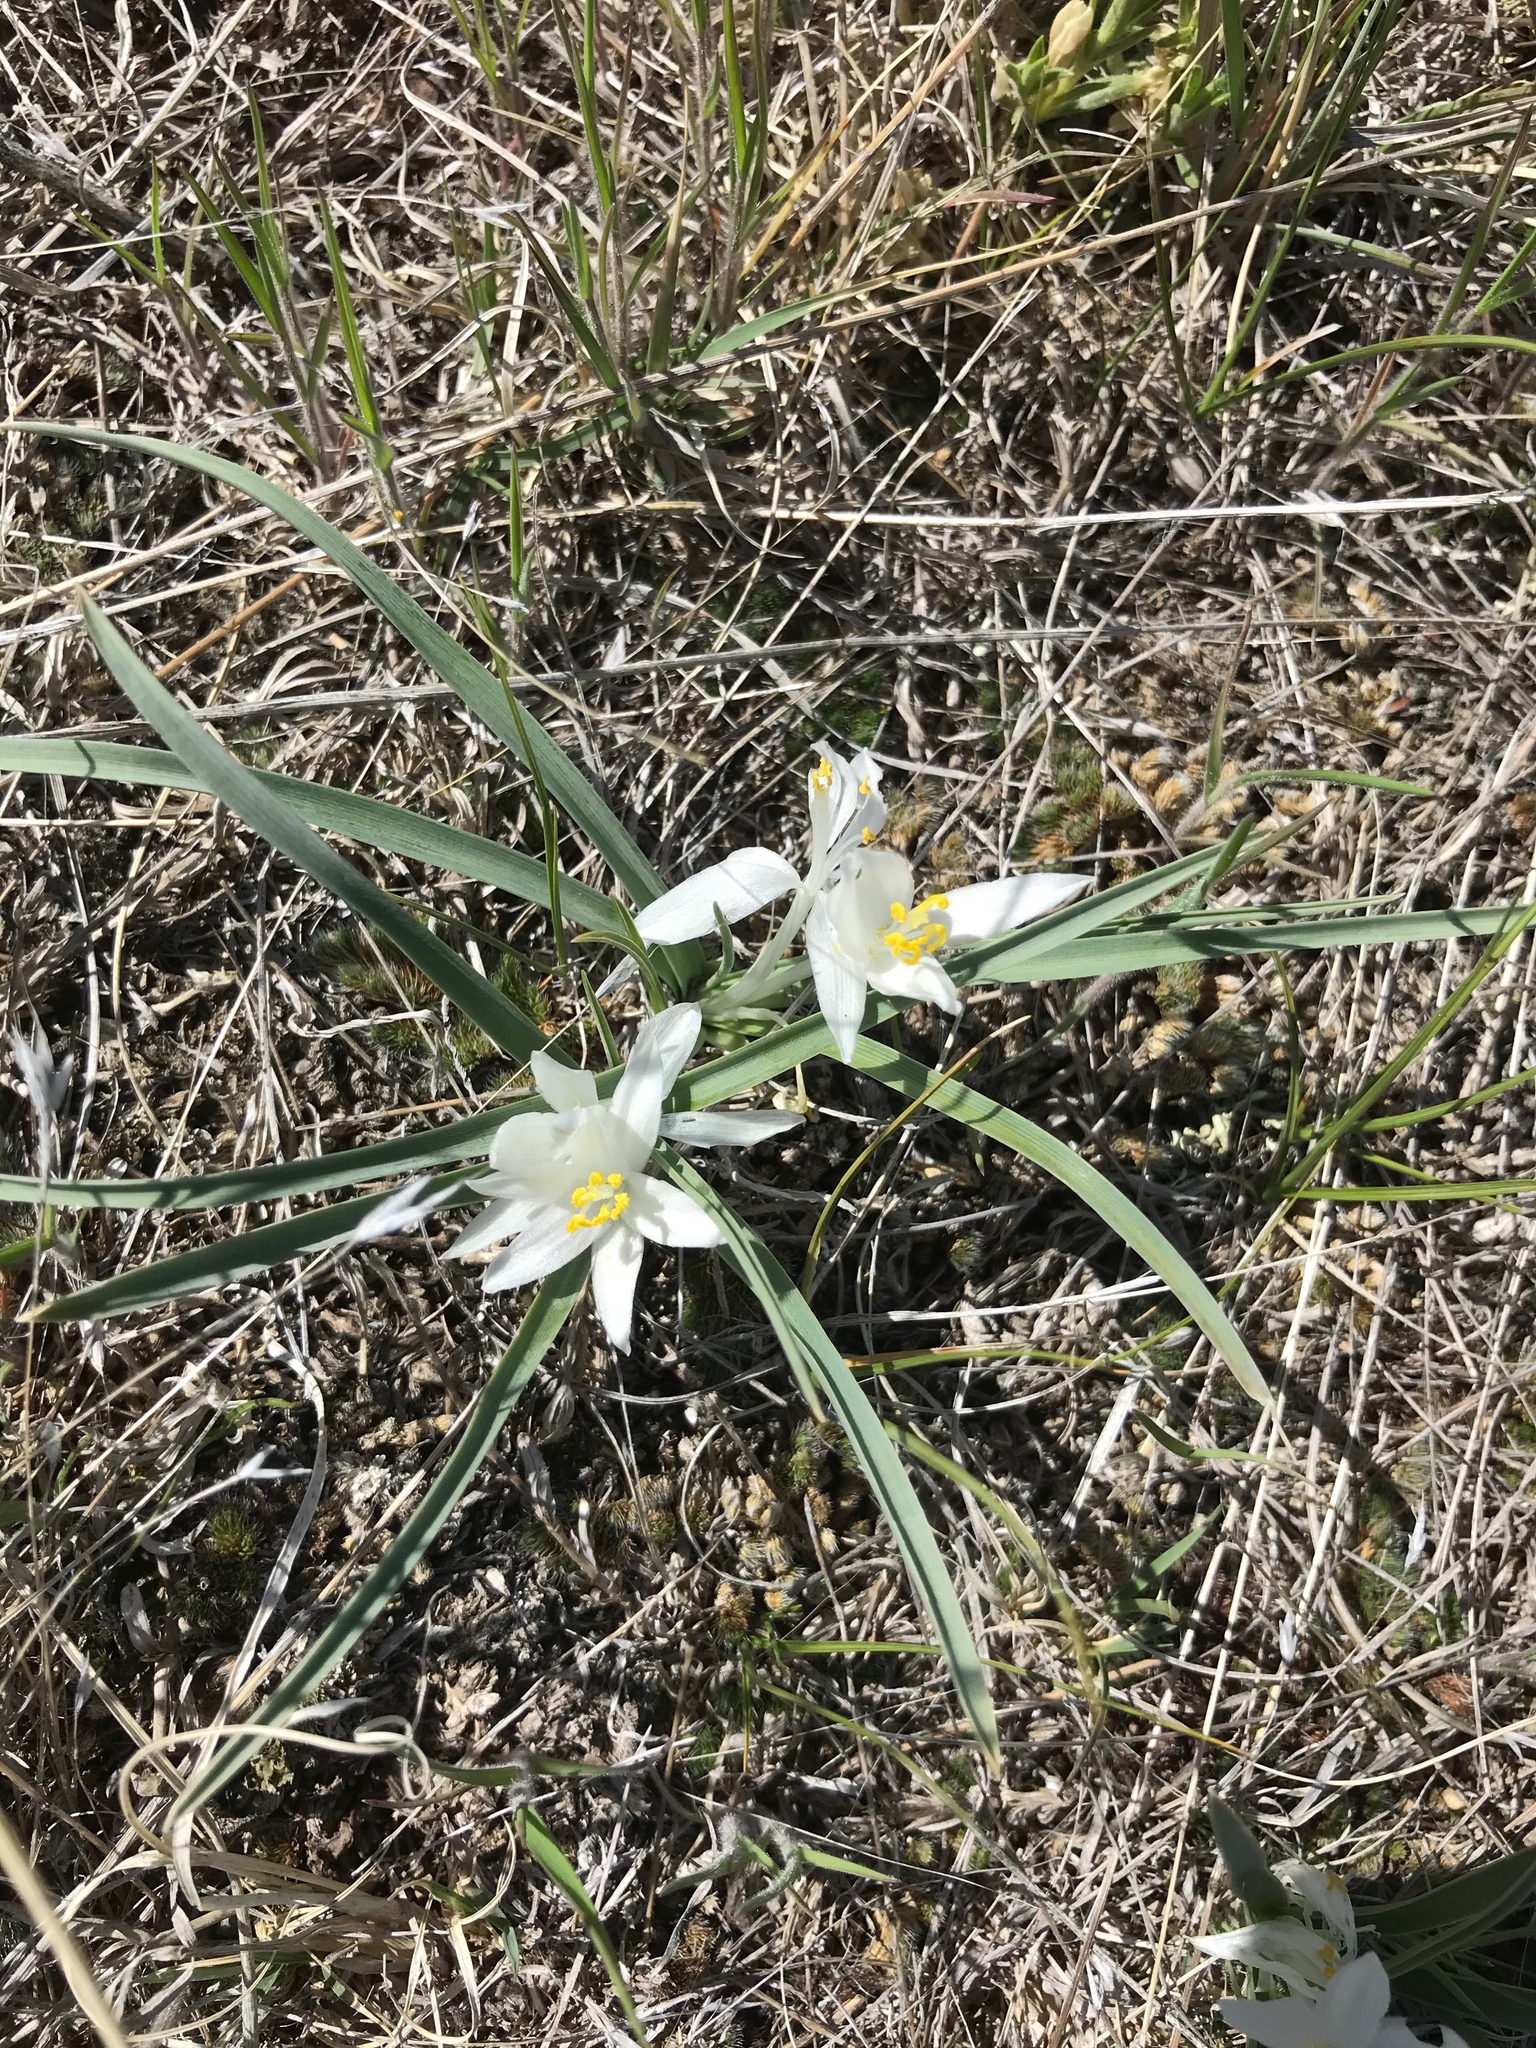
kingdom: Plantae
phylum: Tracheophyta
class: Liliopsida
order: Asparagales
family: Asparagaceae
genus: Leucocrinum
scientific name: Leucocrinum montanum
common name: Mountain-lily
